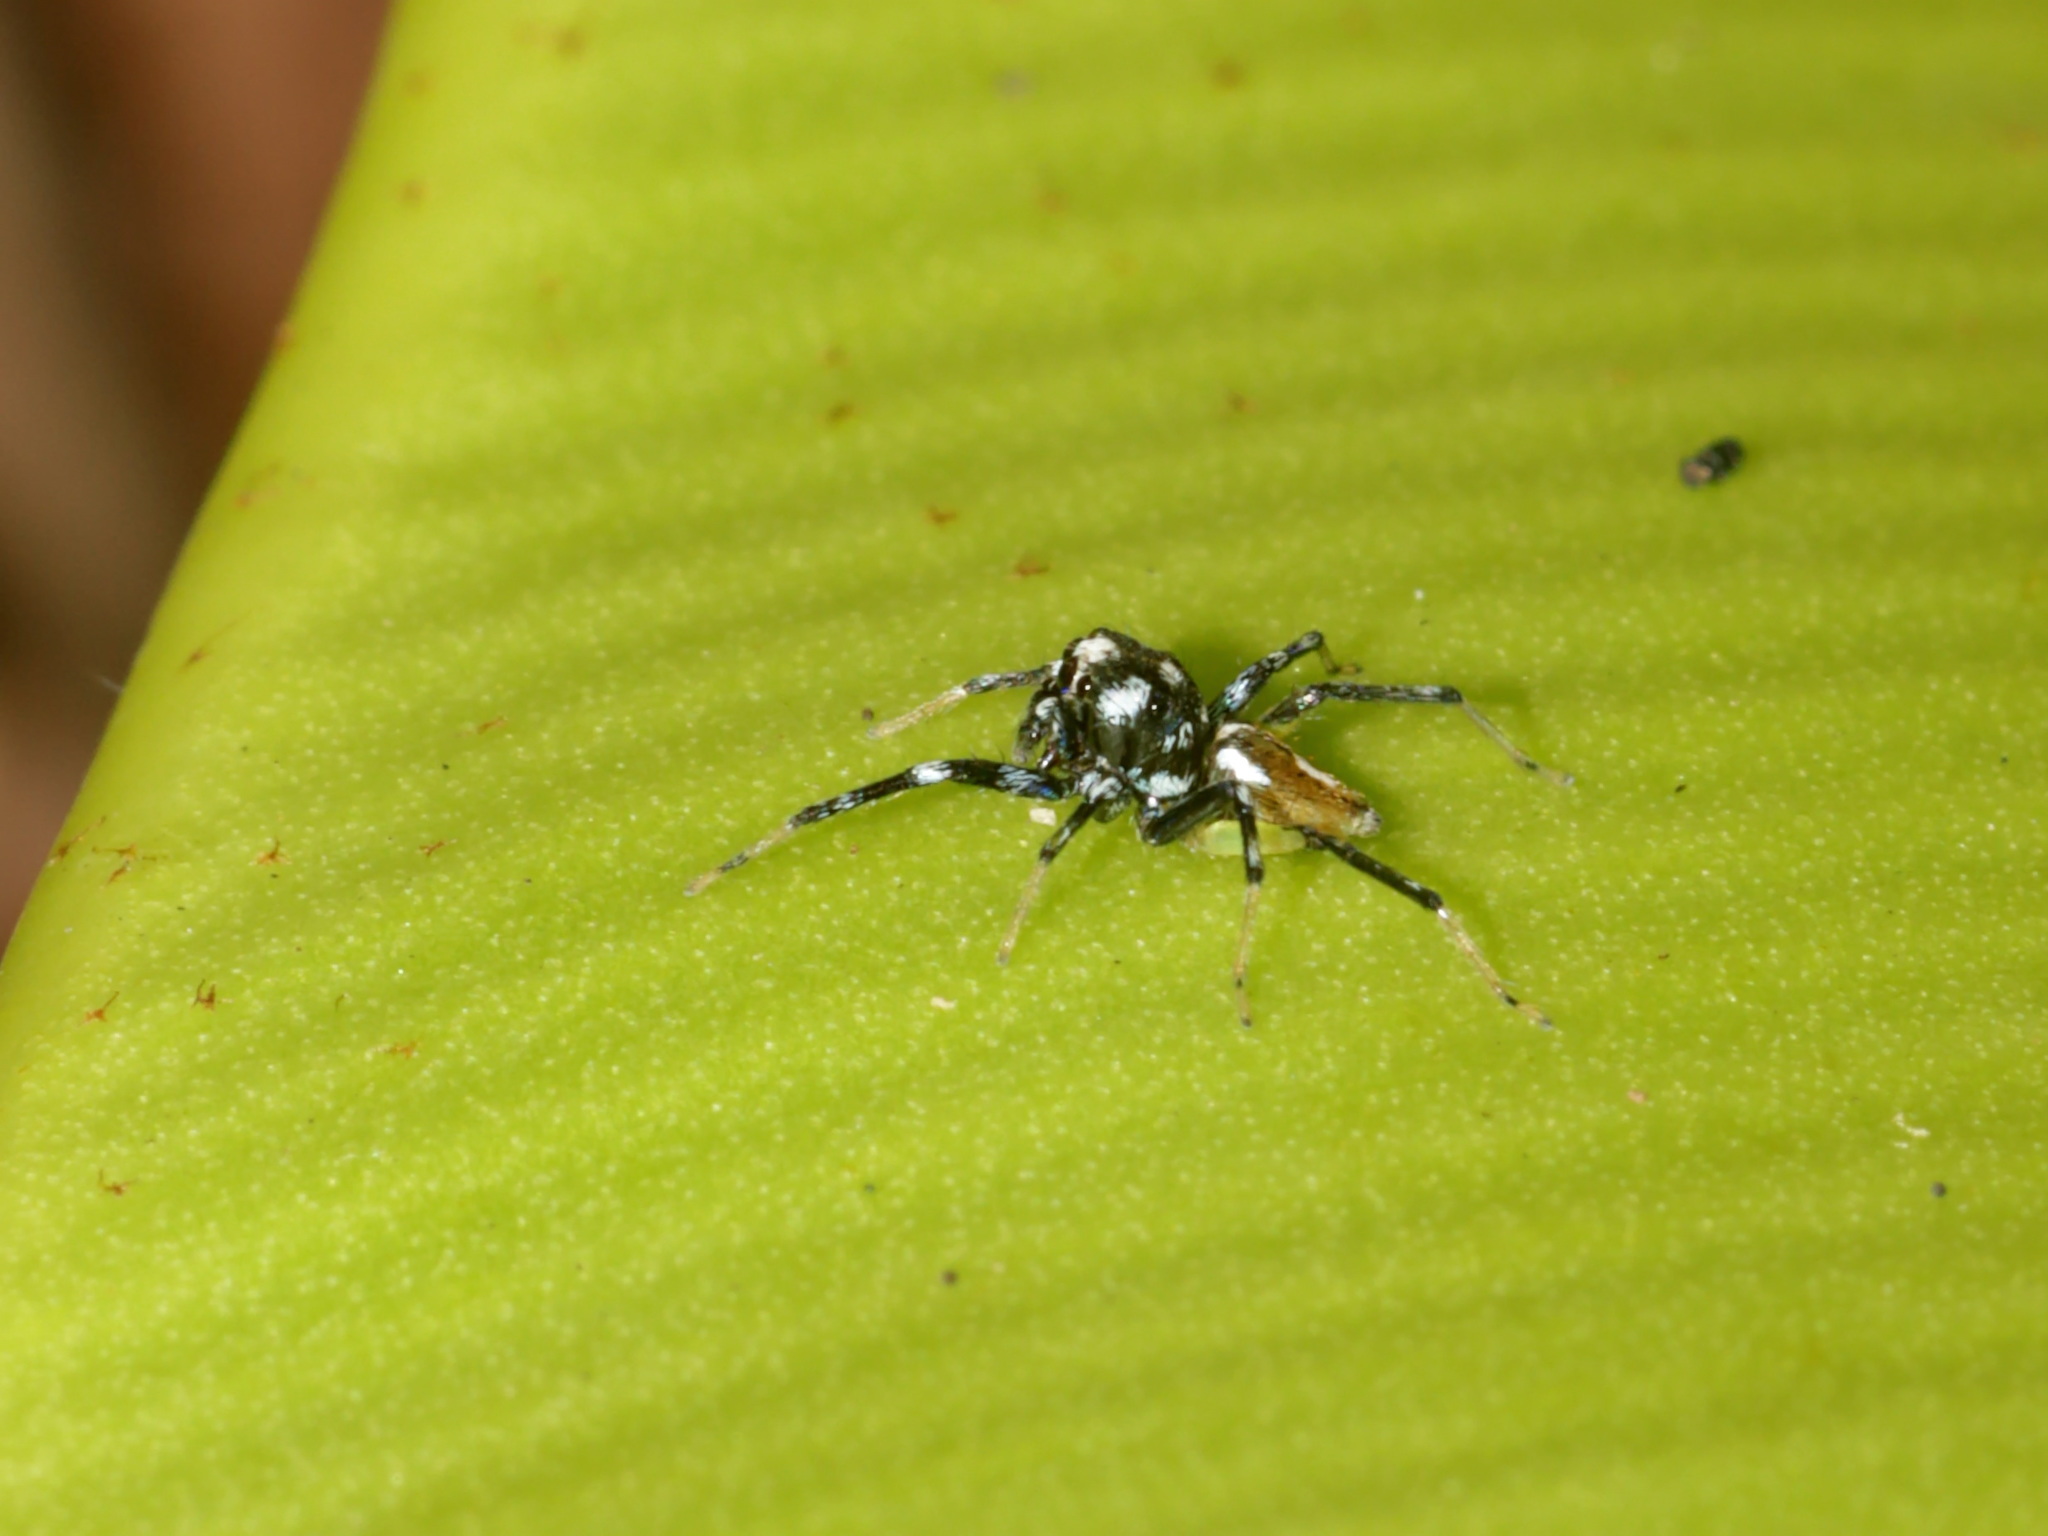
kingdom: Animalia
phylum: Arthropoda
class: Arachnida
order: Araneae
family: Salticidae
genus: Phintella
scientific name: Phintella bifurcilinea
